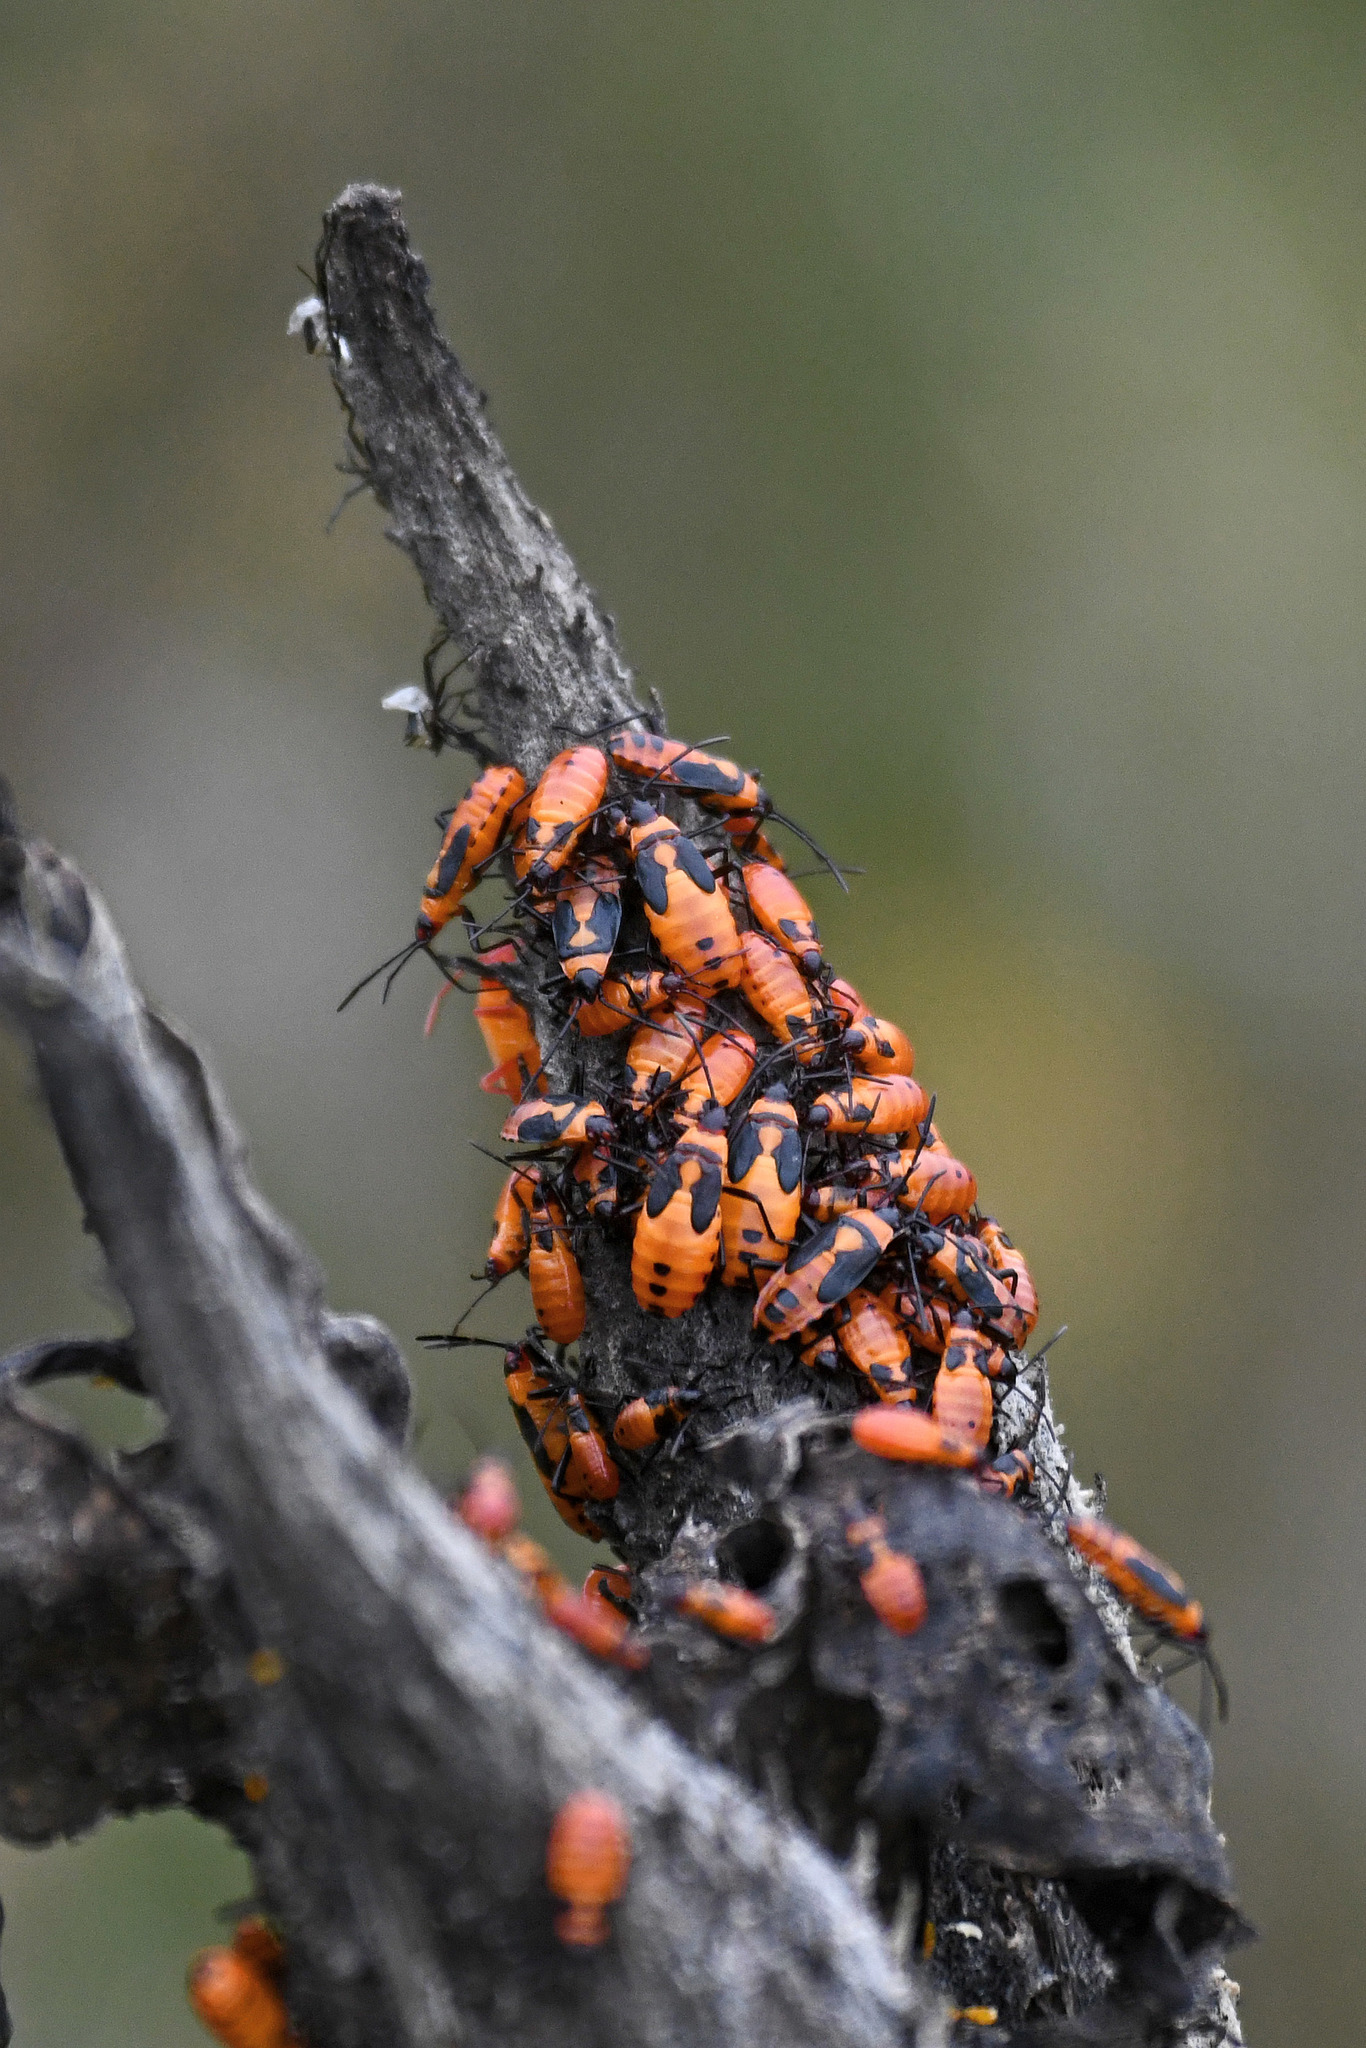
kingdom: Animalia
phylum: Arthropoda
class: Insecta
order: Hemiptera
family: Lygaeidae
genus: Oncopeltus
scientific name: Oncopeltus fasciatus
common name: Large milkweed bug
